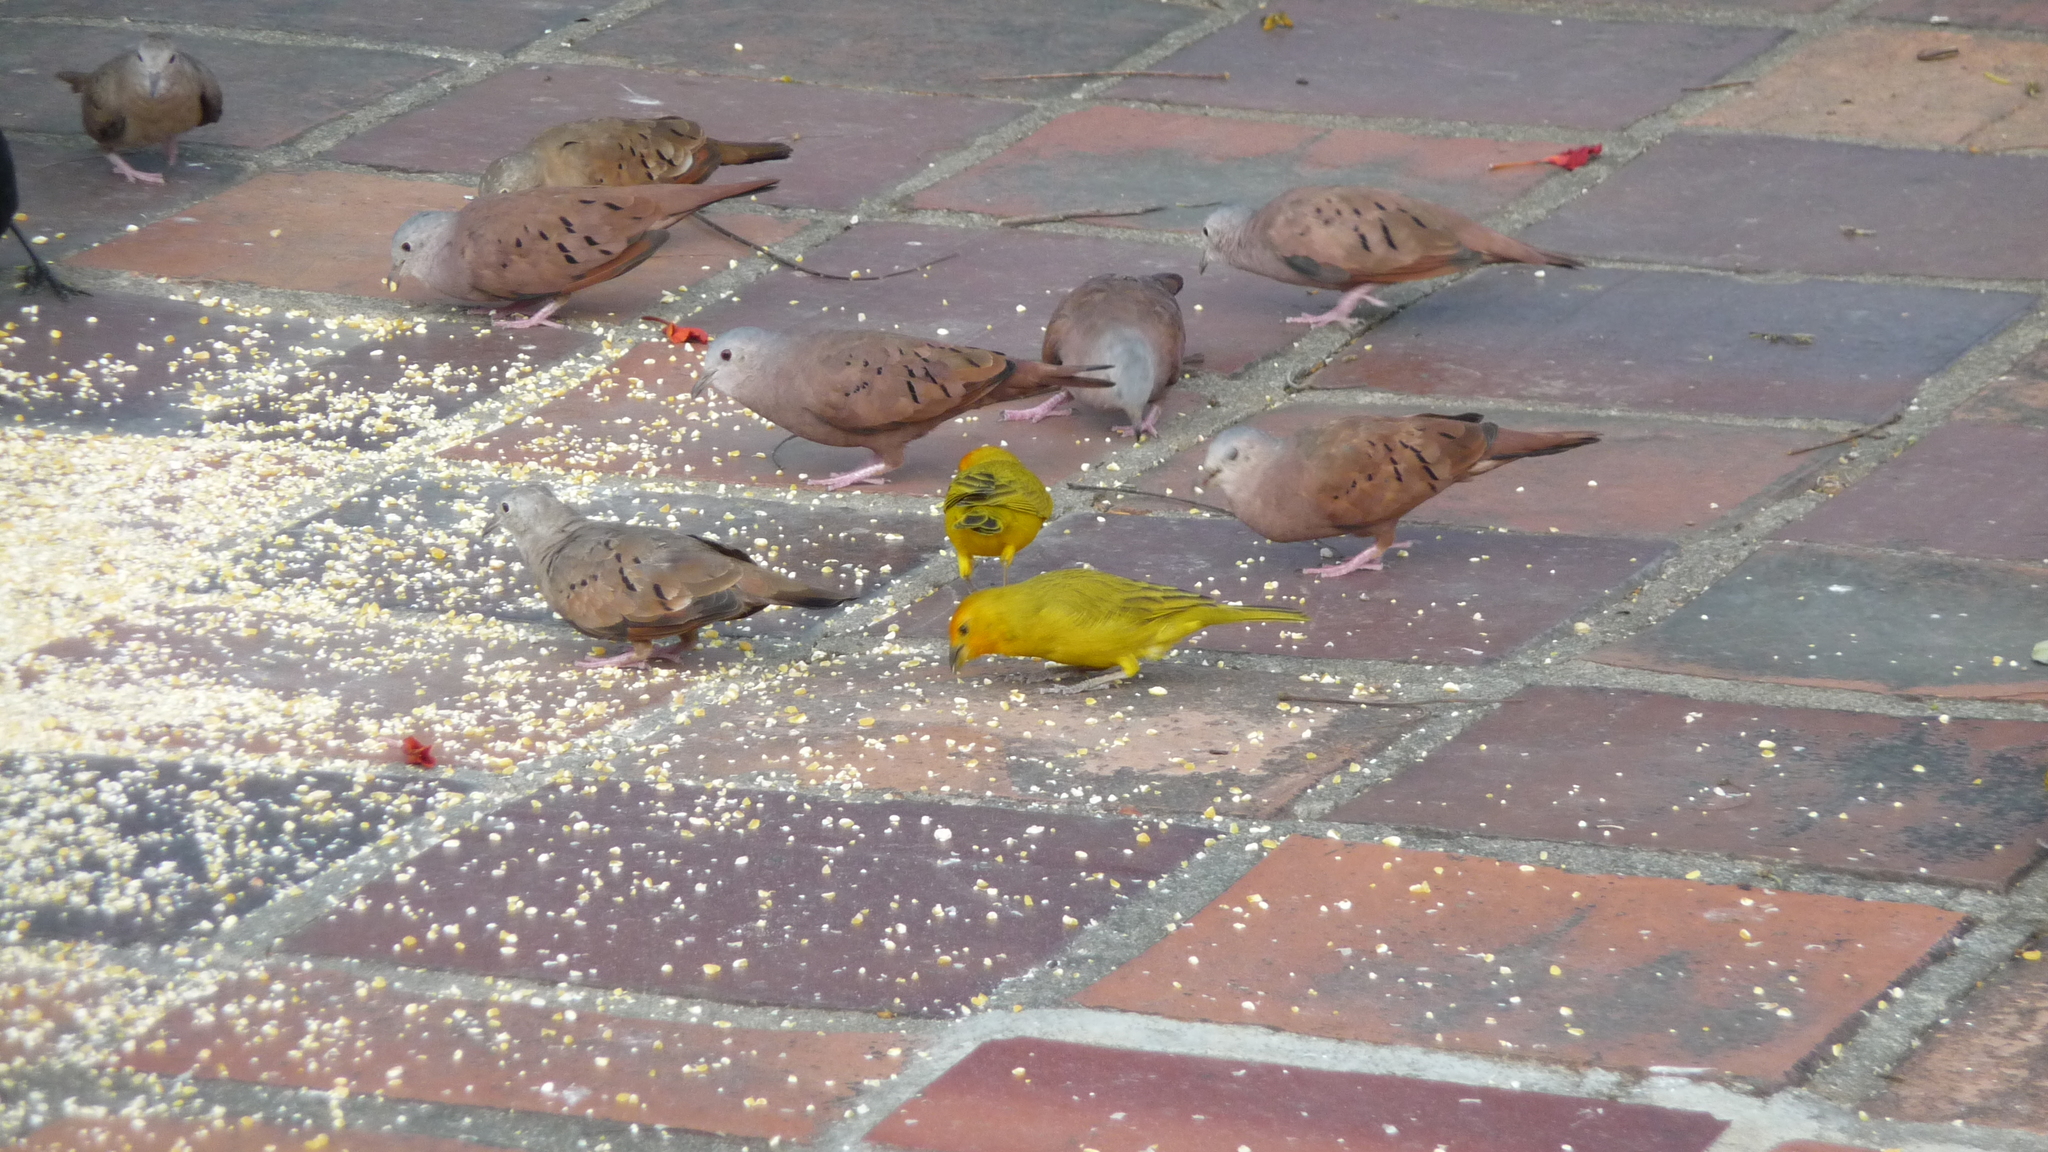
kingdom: Animalia
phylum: Chordata
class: Aves
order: Columbiformes
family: Columbidae
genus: Columbina
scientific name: Columbina talpacoti
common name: Ruddy ground dove
